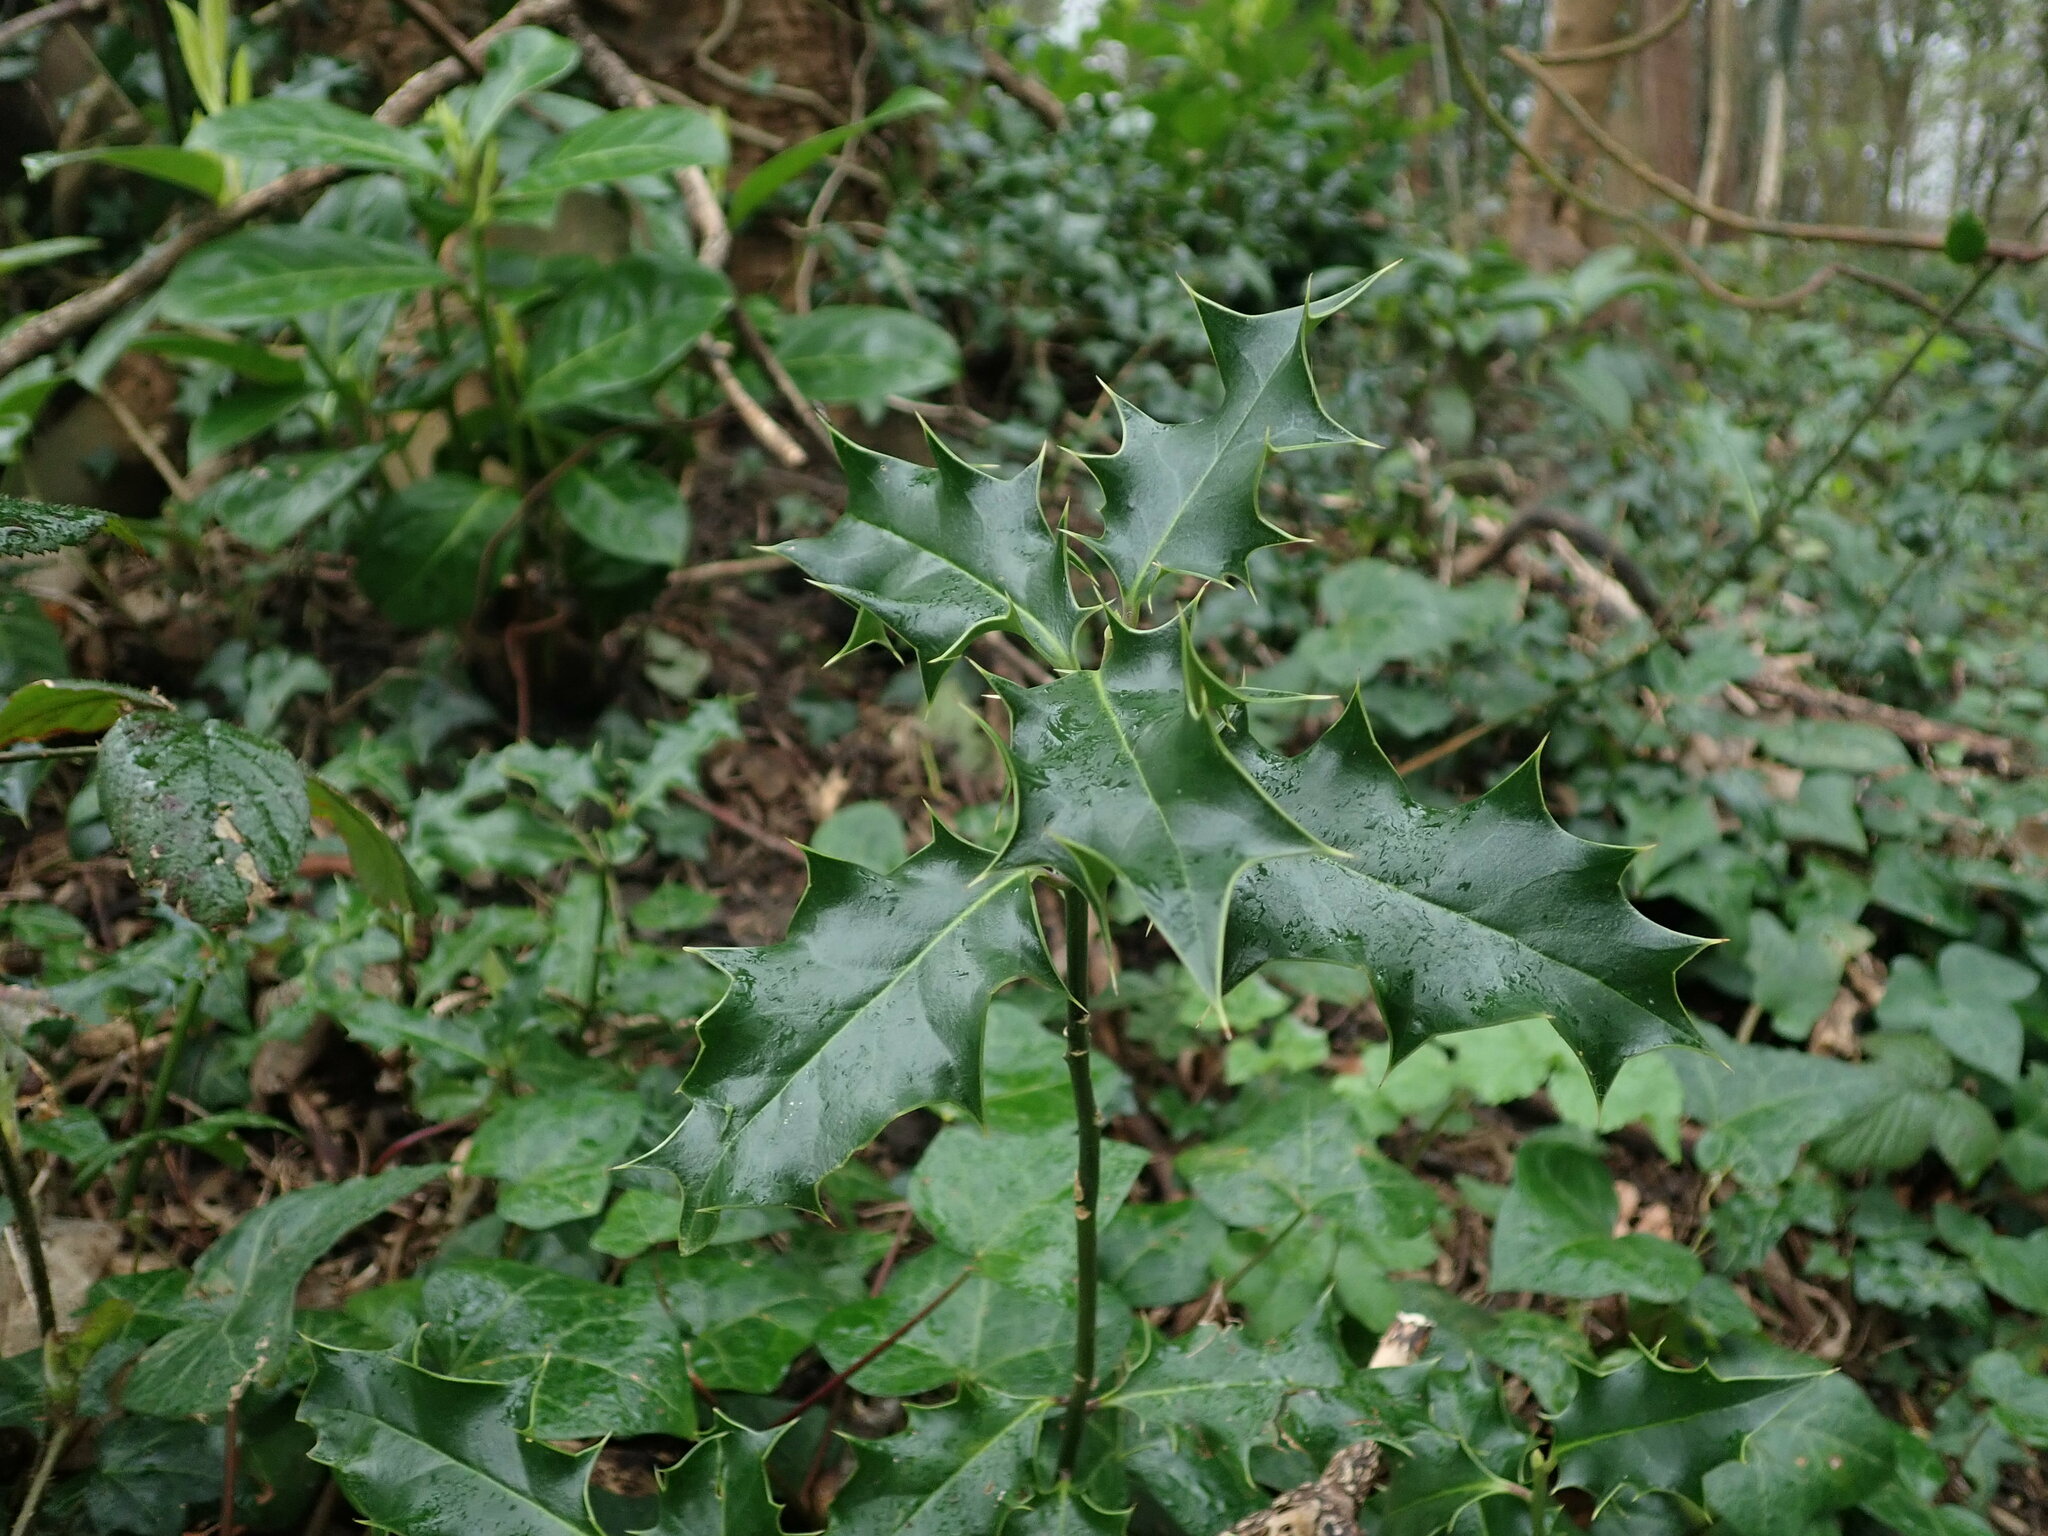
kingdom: Plantae
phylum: Tracheophyta
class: Magnoliopsida
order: Aquifoliales
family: Aquifoliaceae
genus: Ilex
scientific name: Ilex aquifolium
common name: English holly
